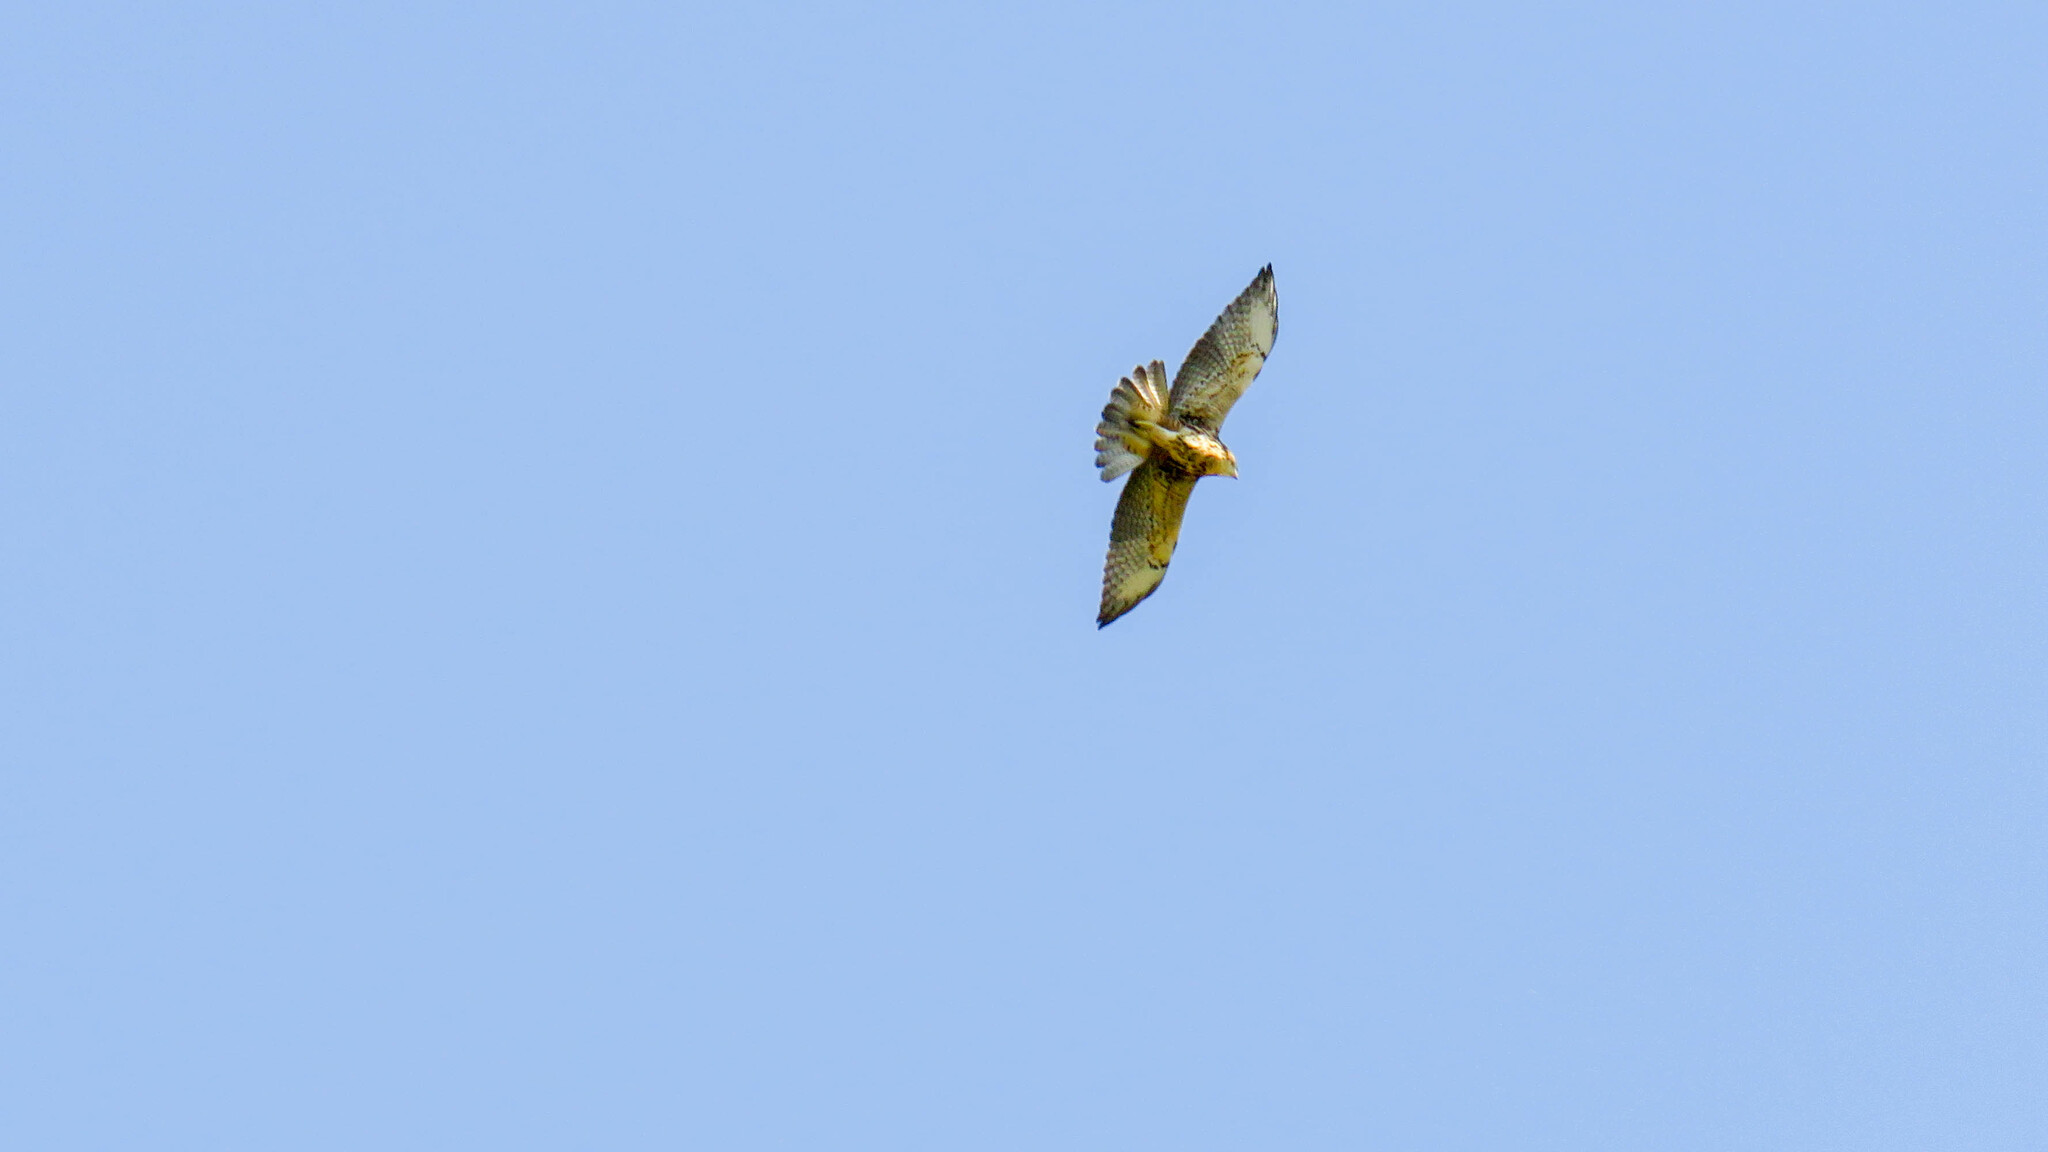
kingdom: Animalia
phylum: Chordata
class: Aves
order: Accipitriformes
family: Accipitridae
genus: Buteo
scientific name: Buteo polyosoma
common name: Variable hawk
